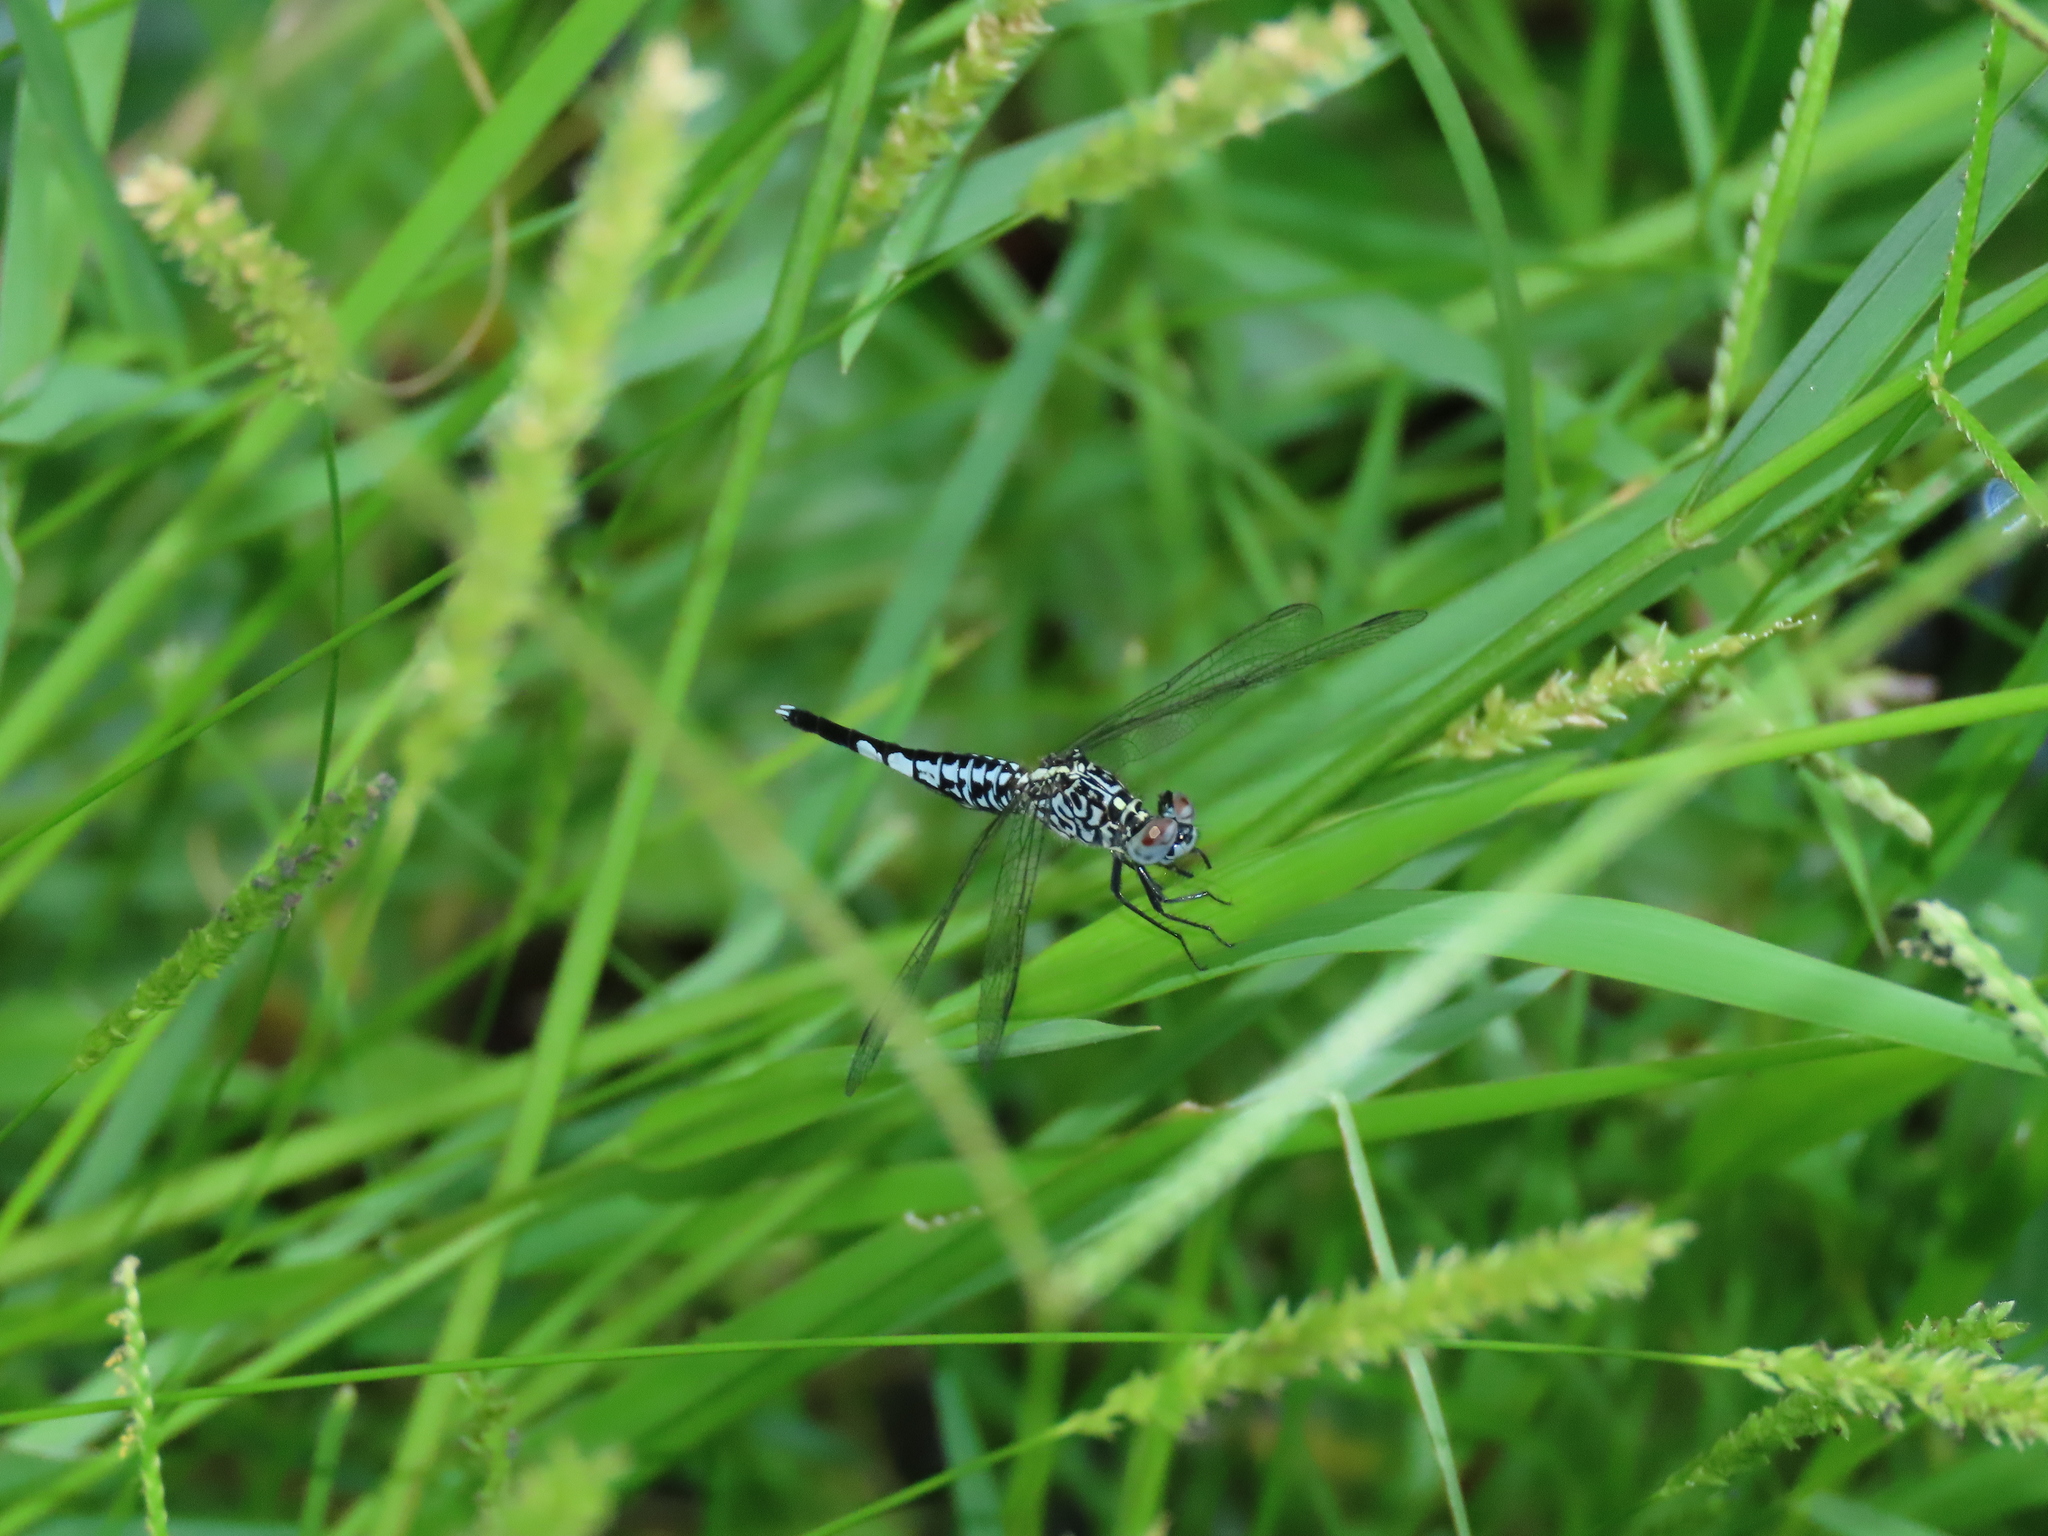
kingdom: Animalia
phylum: Arthropoda
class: Insecta
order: Odonata
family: Libellulidae
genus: Acisoma
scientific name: Acisoma panorpoides
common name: Asian pintail
